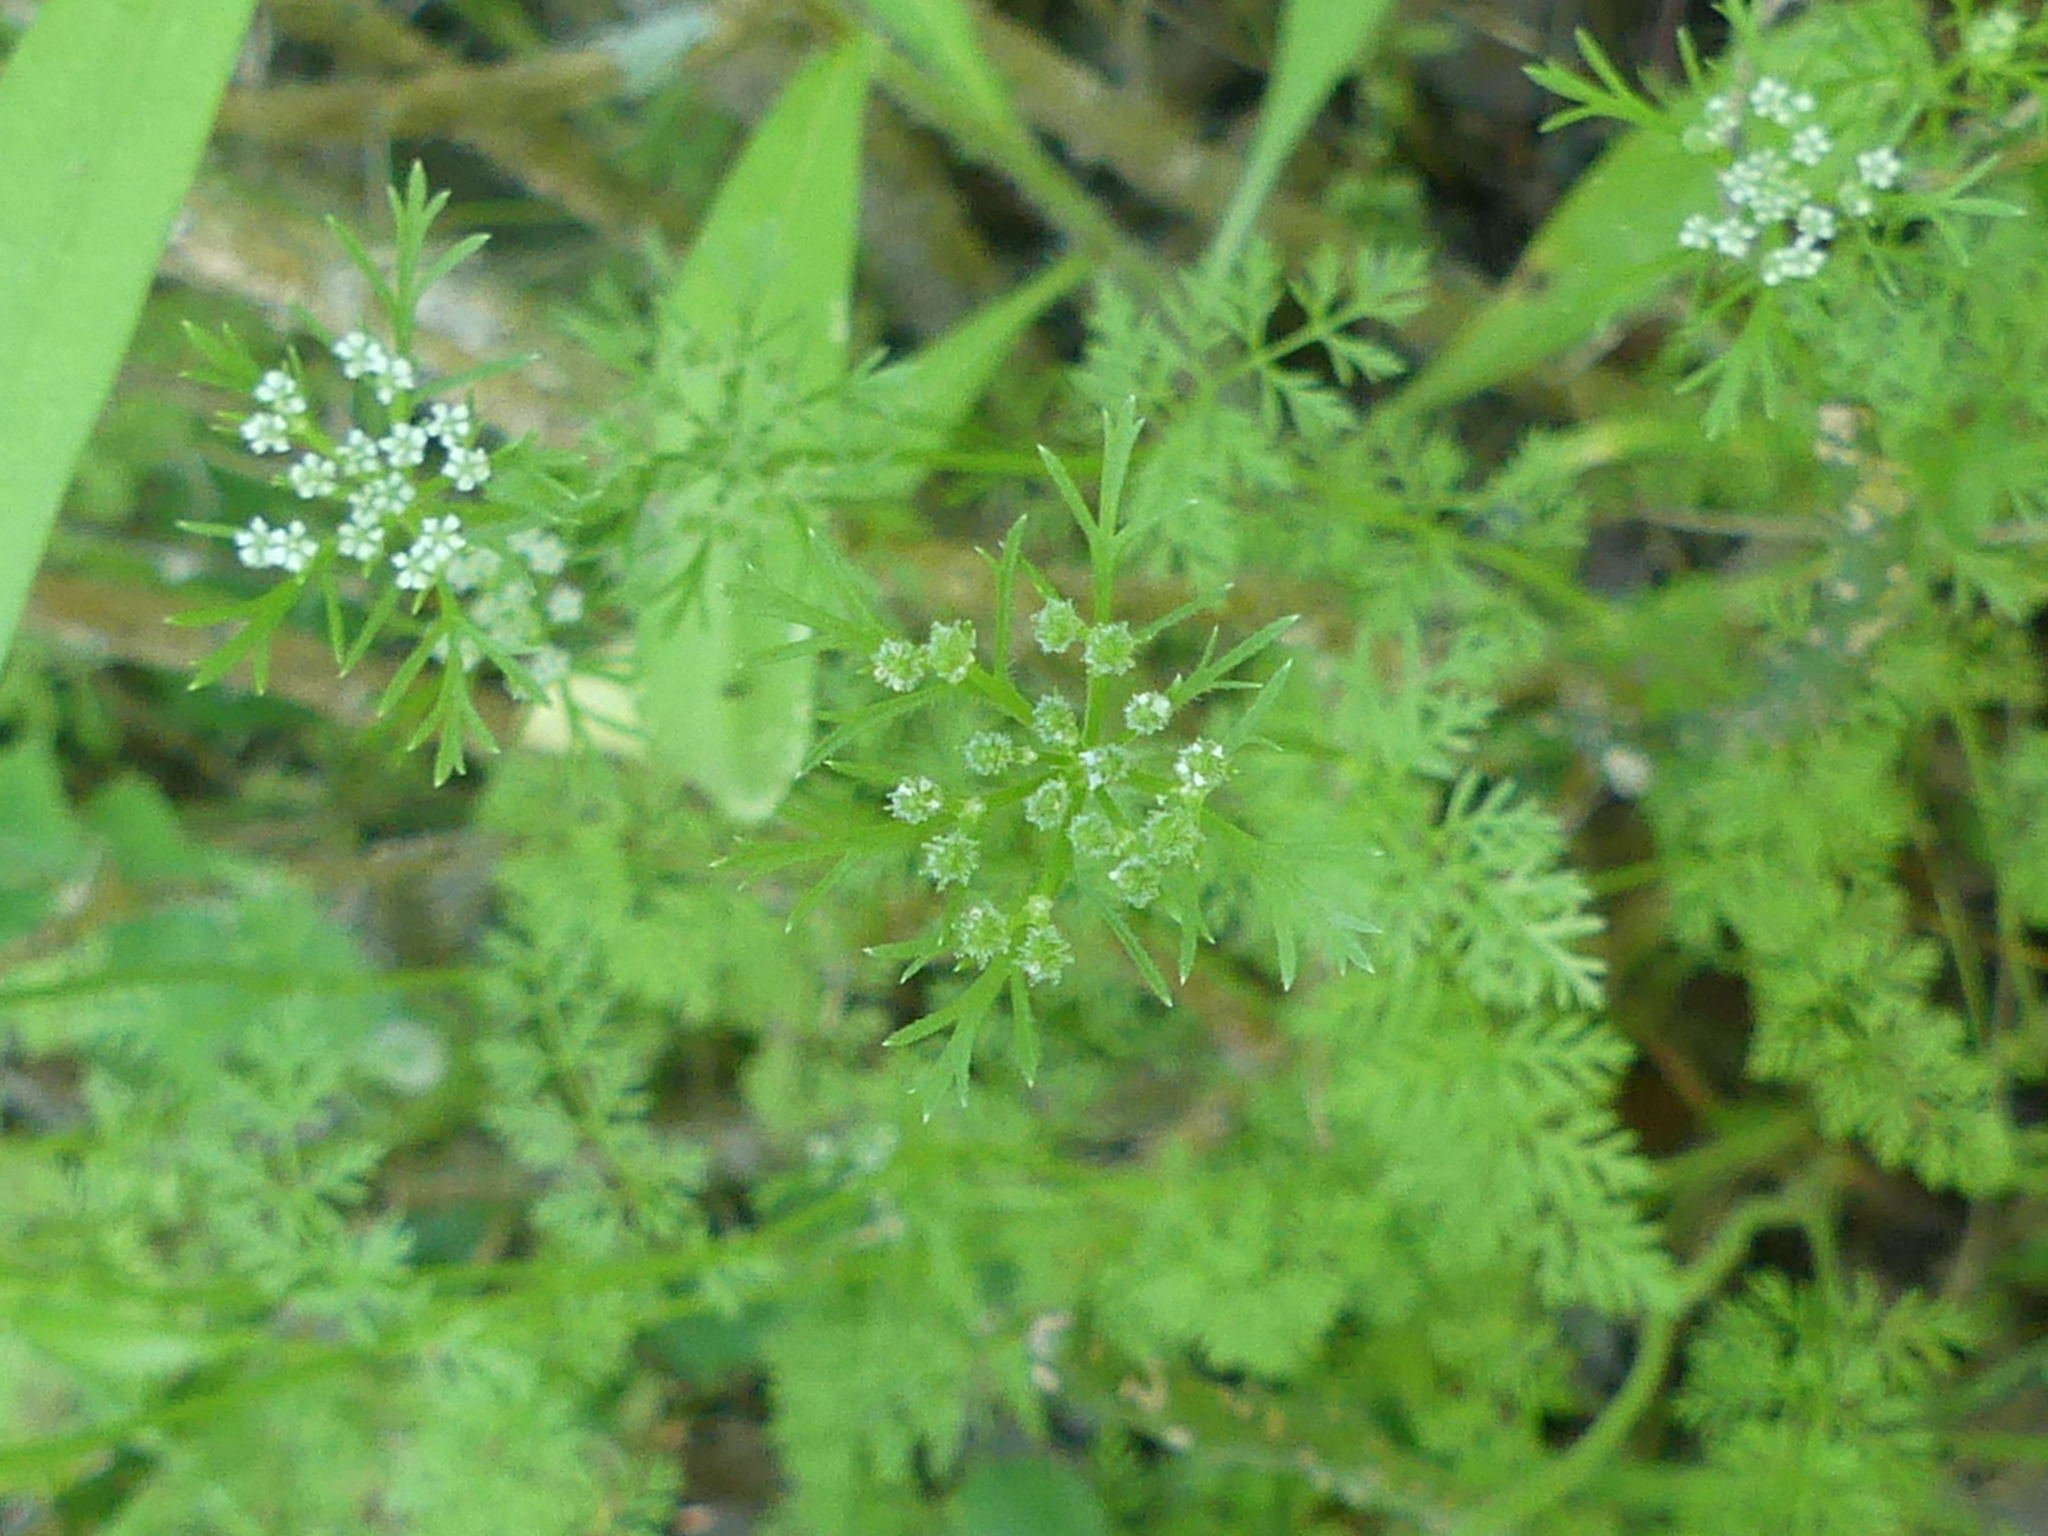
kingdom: Plantae
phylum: Tracheophyta
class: Magnoliopsida
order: Apiales
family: Apiaceae
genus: Daucus
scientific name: Daucus pusillus
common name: Southwest wild carrot
